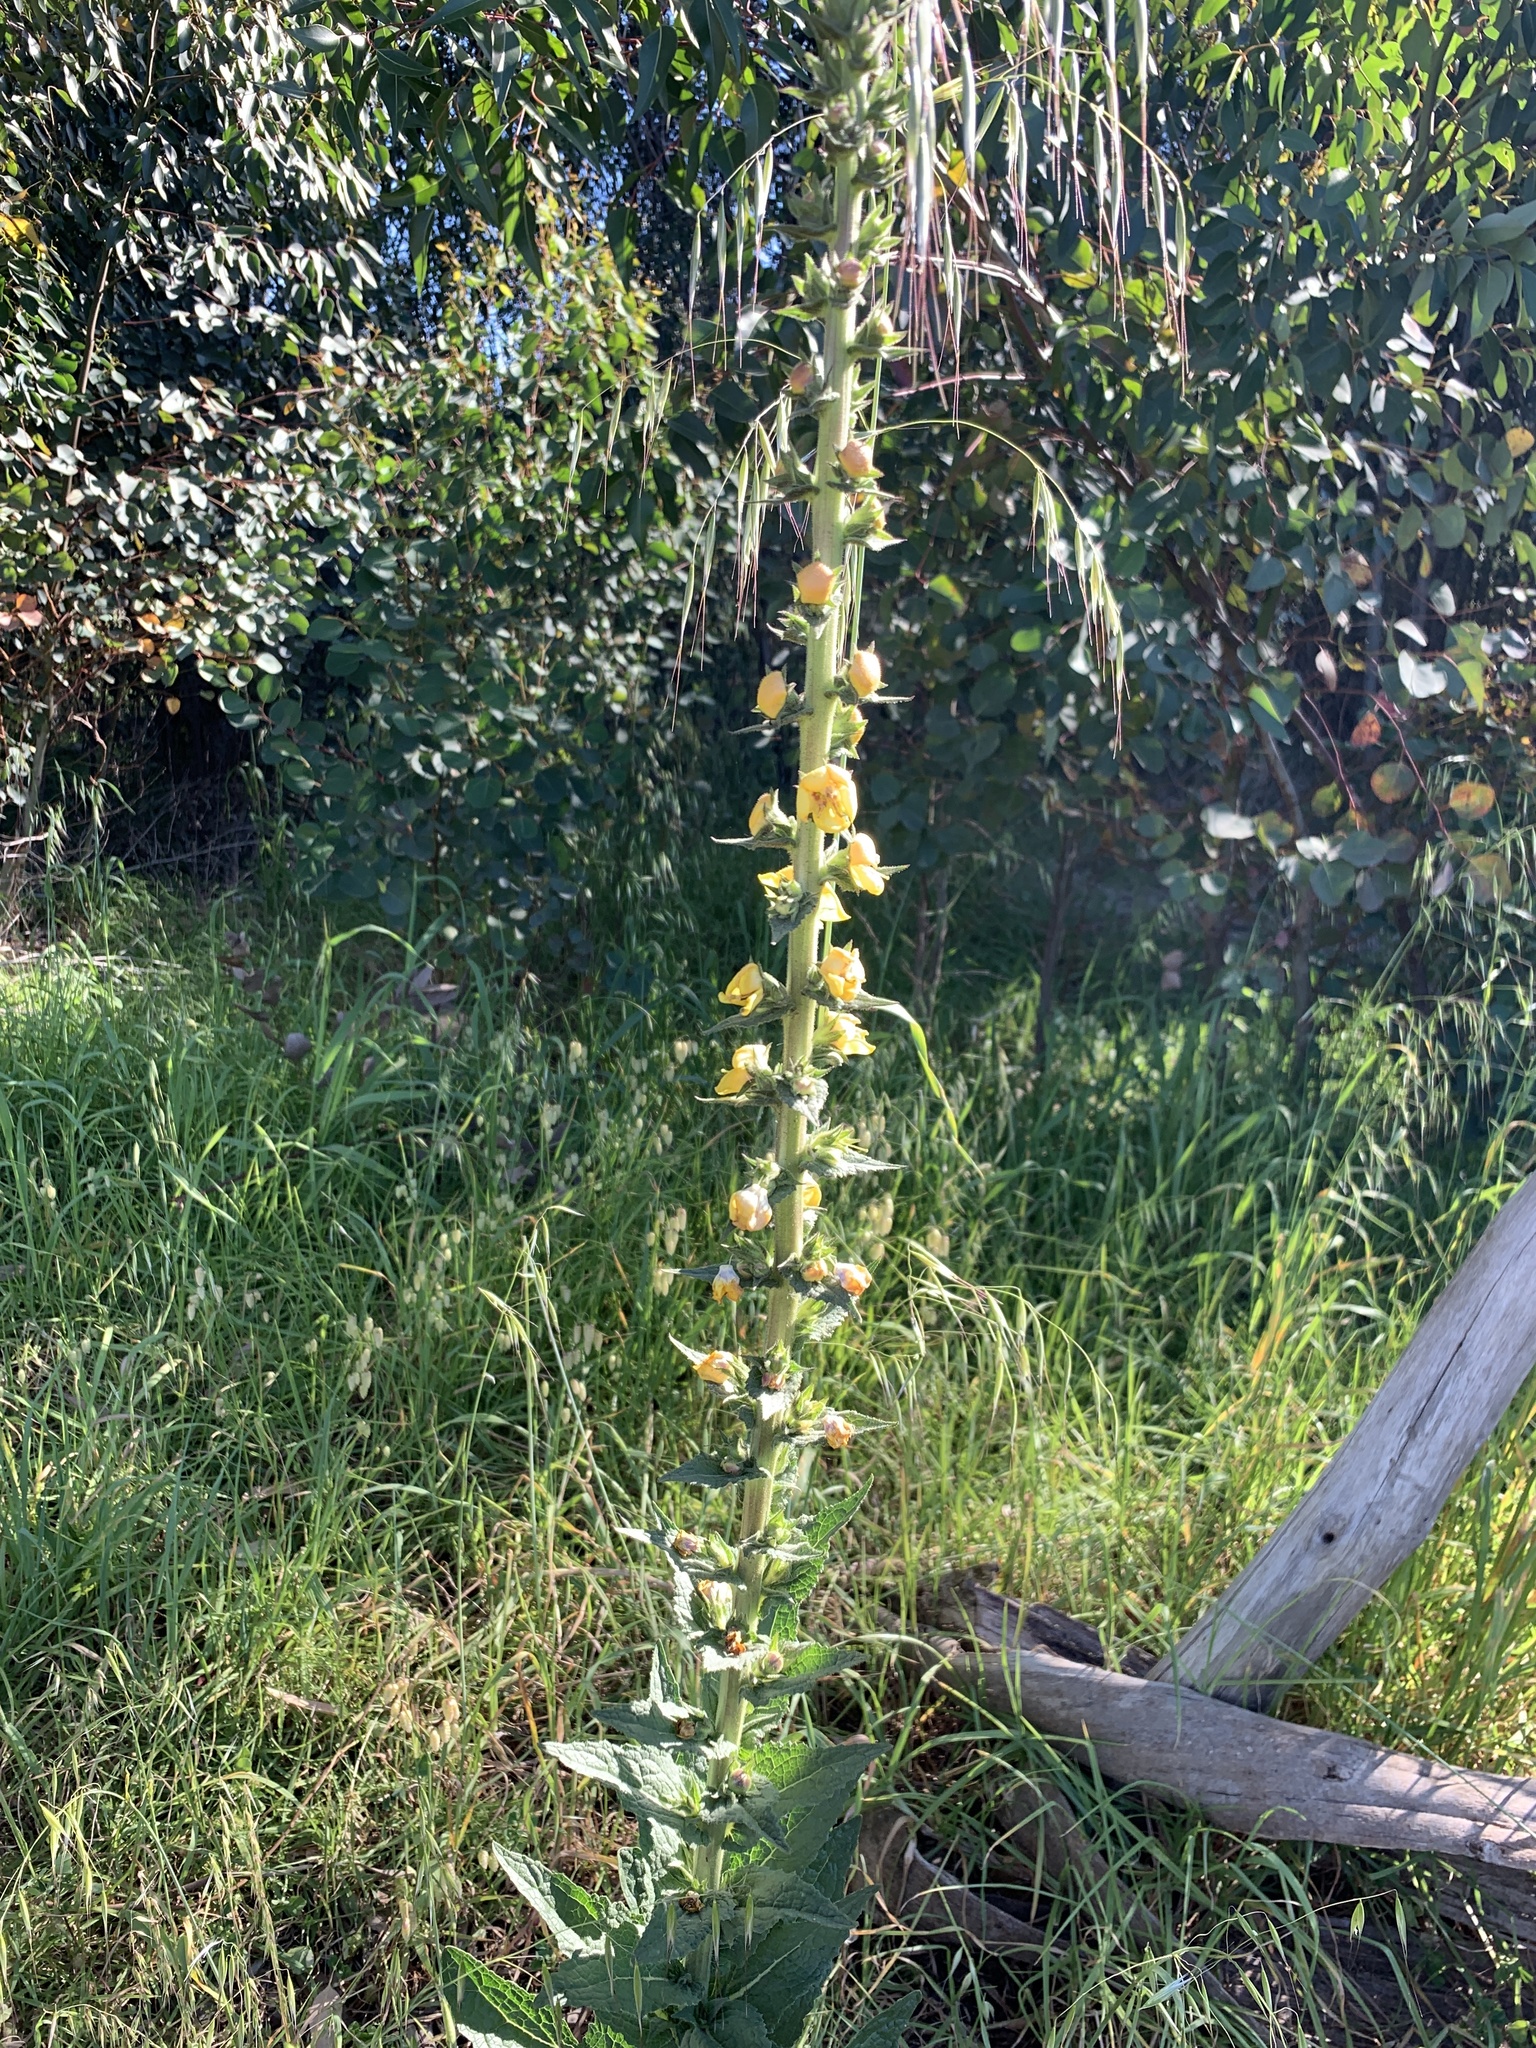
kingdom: Plantae
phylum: Tracheophyta
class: Magnoliopsida
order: Lamiales
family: Scrophulariaceae
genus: Verbascum
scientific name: Verbascum virgatum
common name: Twiggy mullein
